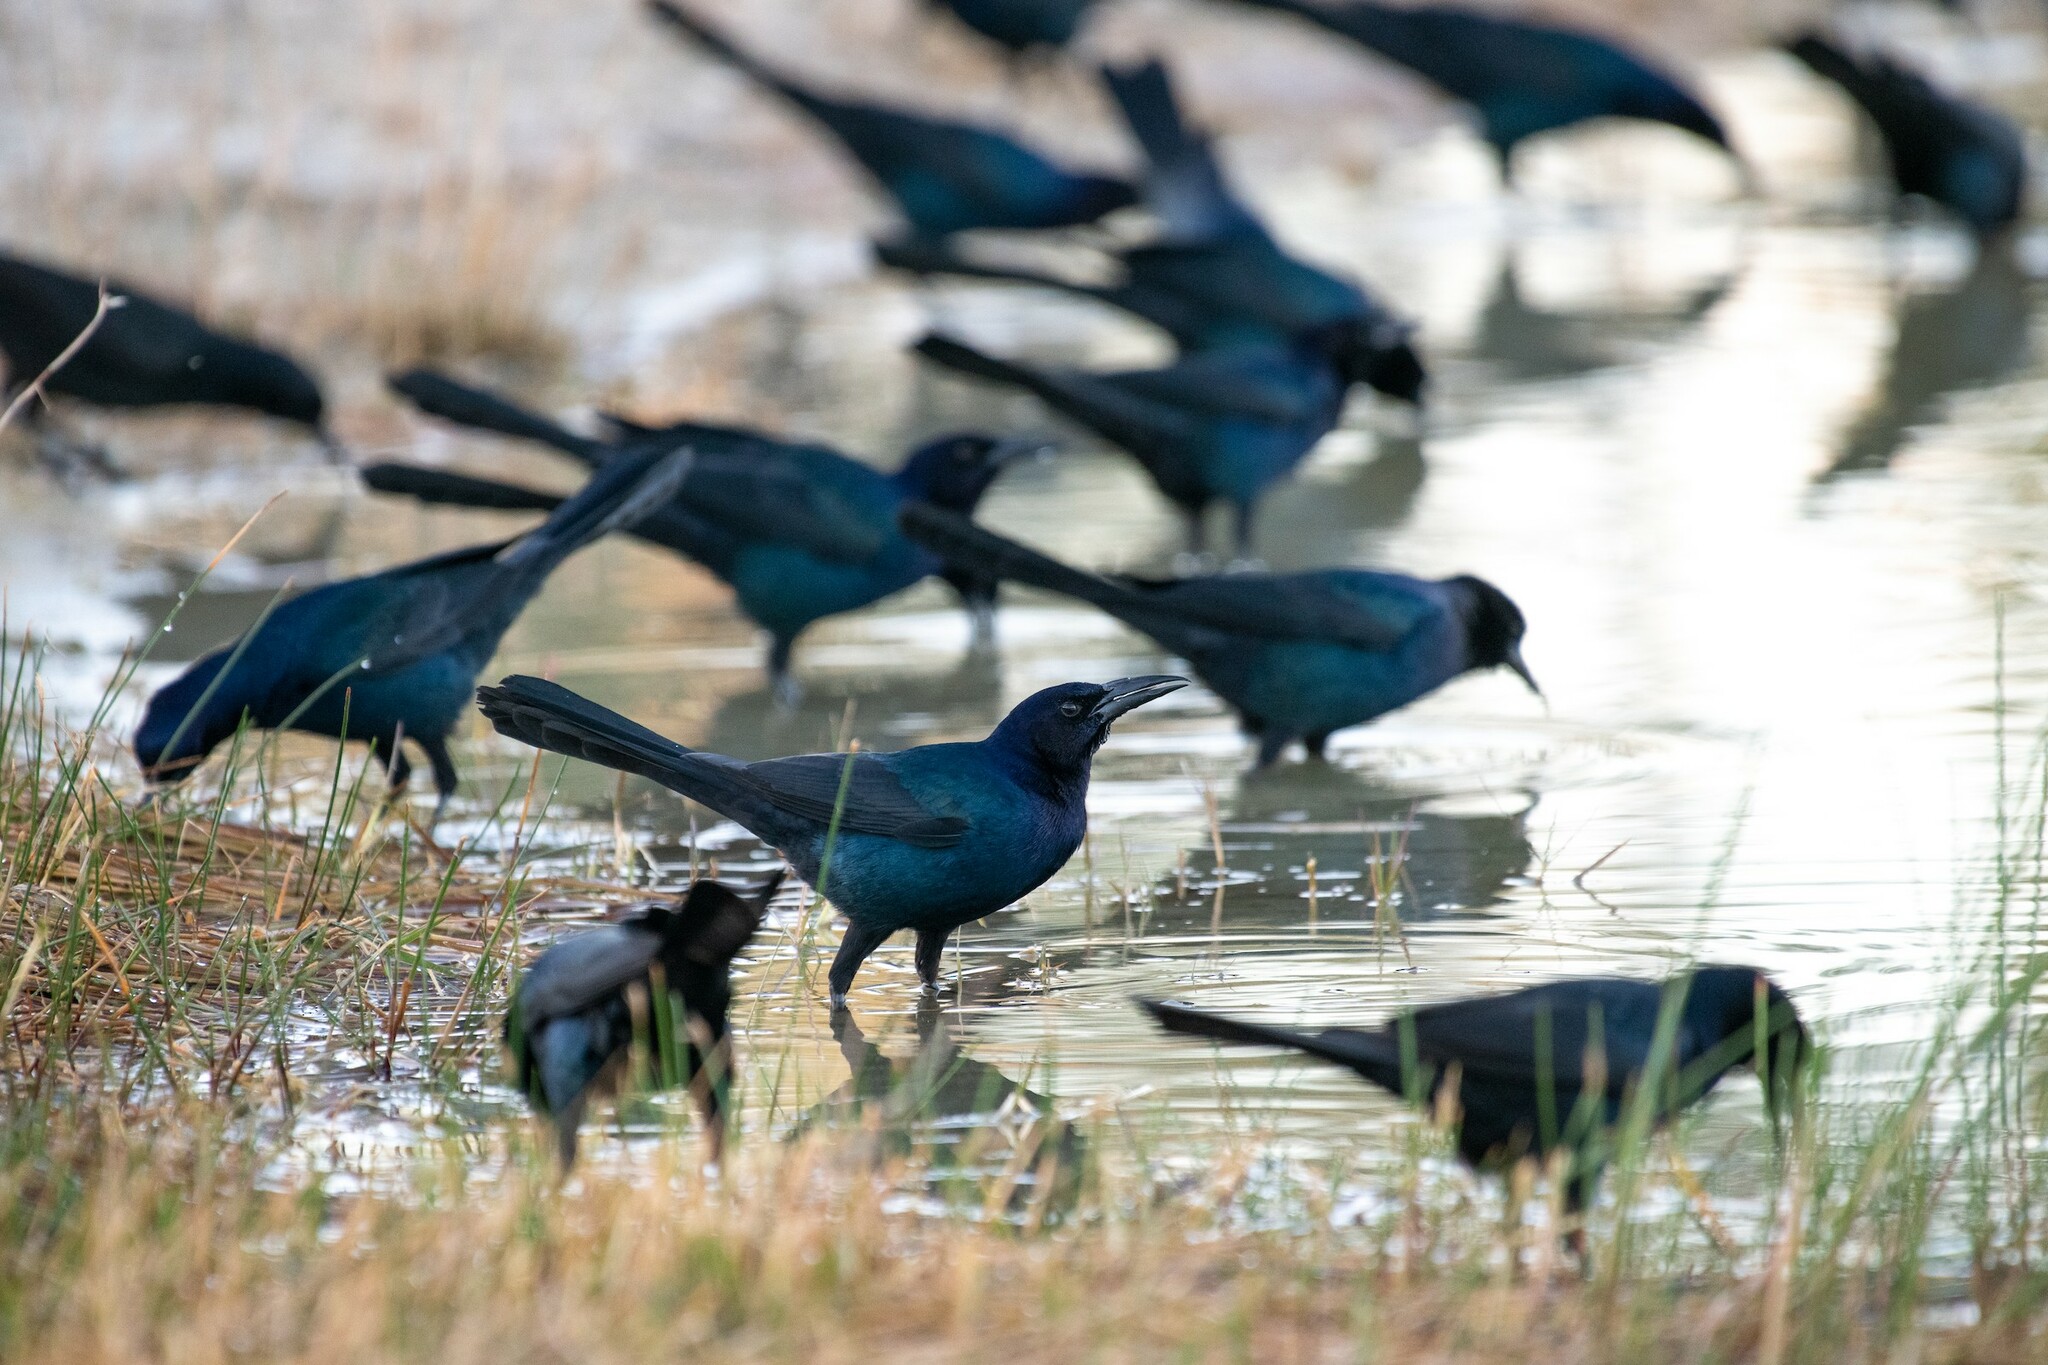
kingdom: Animalia
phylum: Chordata
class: Aves
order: Passeriformes
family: Icteridae
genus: Quiscalus
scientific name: Quiscalus major
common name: Boat-tailed grackle
